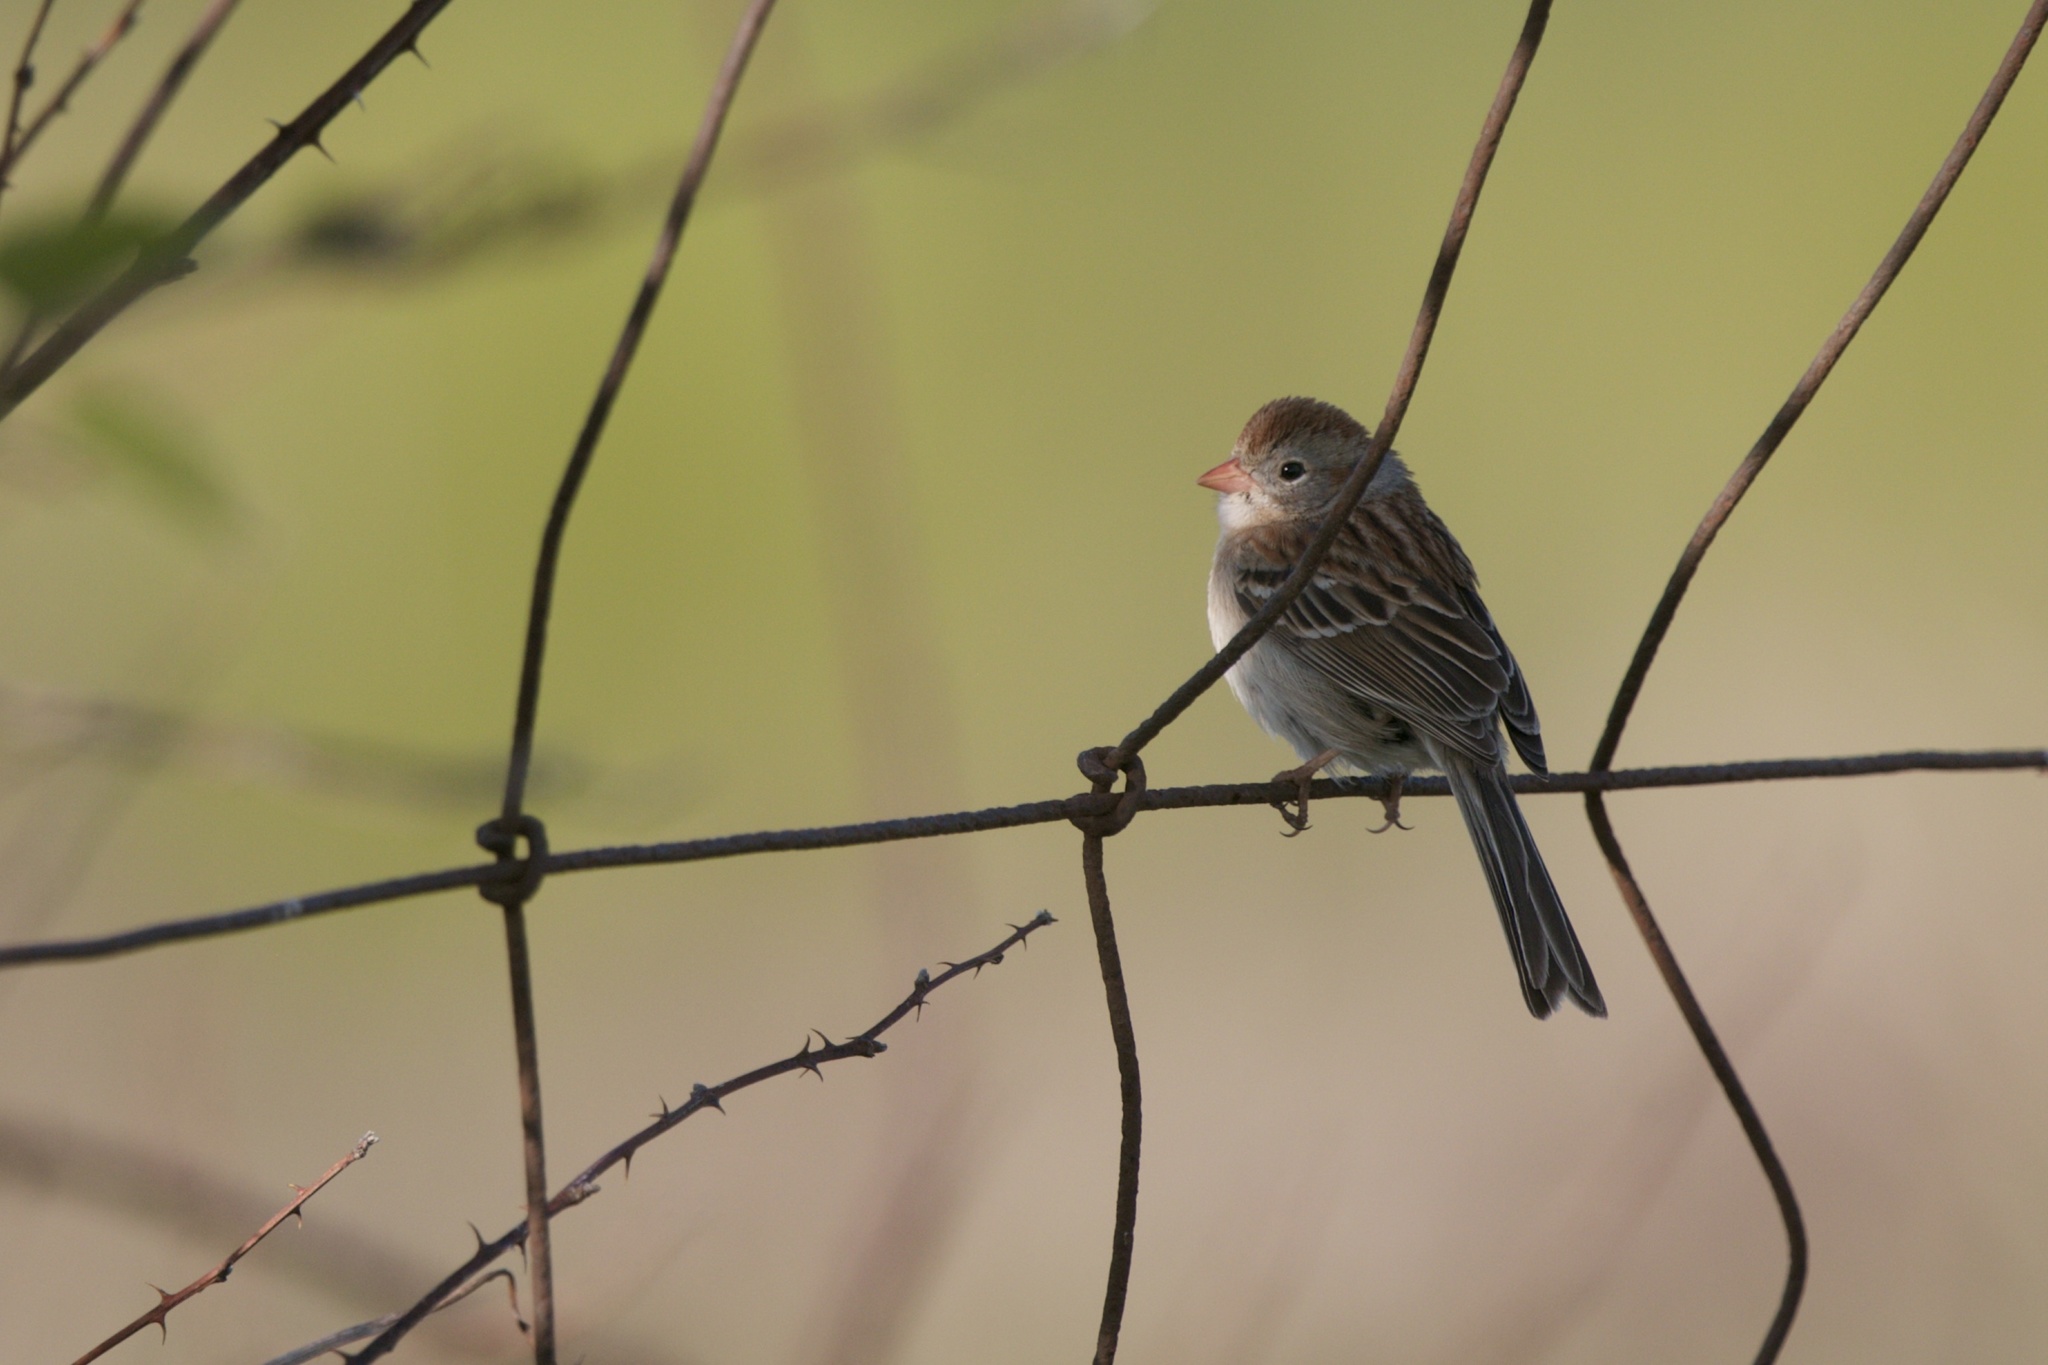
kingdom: Animalia
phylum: Chordata
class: Aves
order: Passeriformes
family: Passerellidae
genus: Spizella
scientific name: Spizella pusilla
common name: Field sparrow
